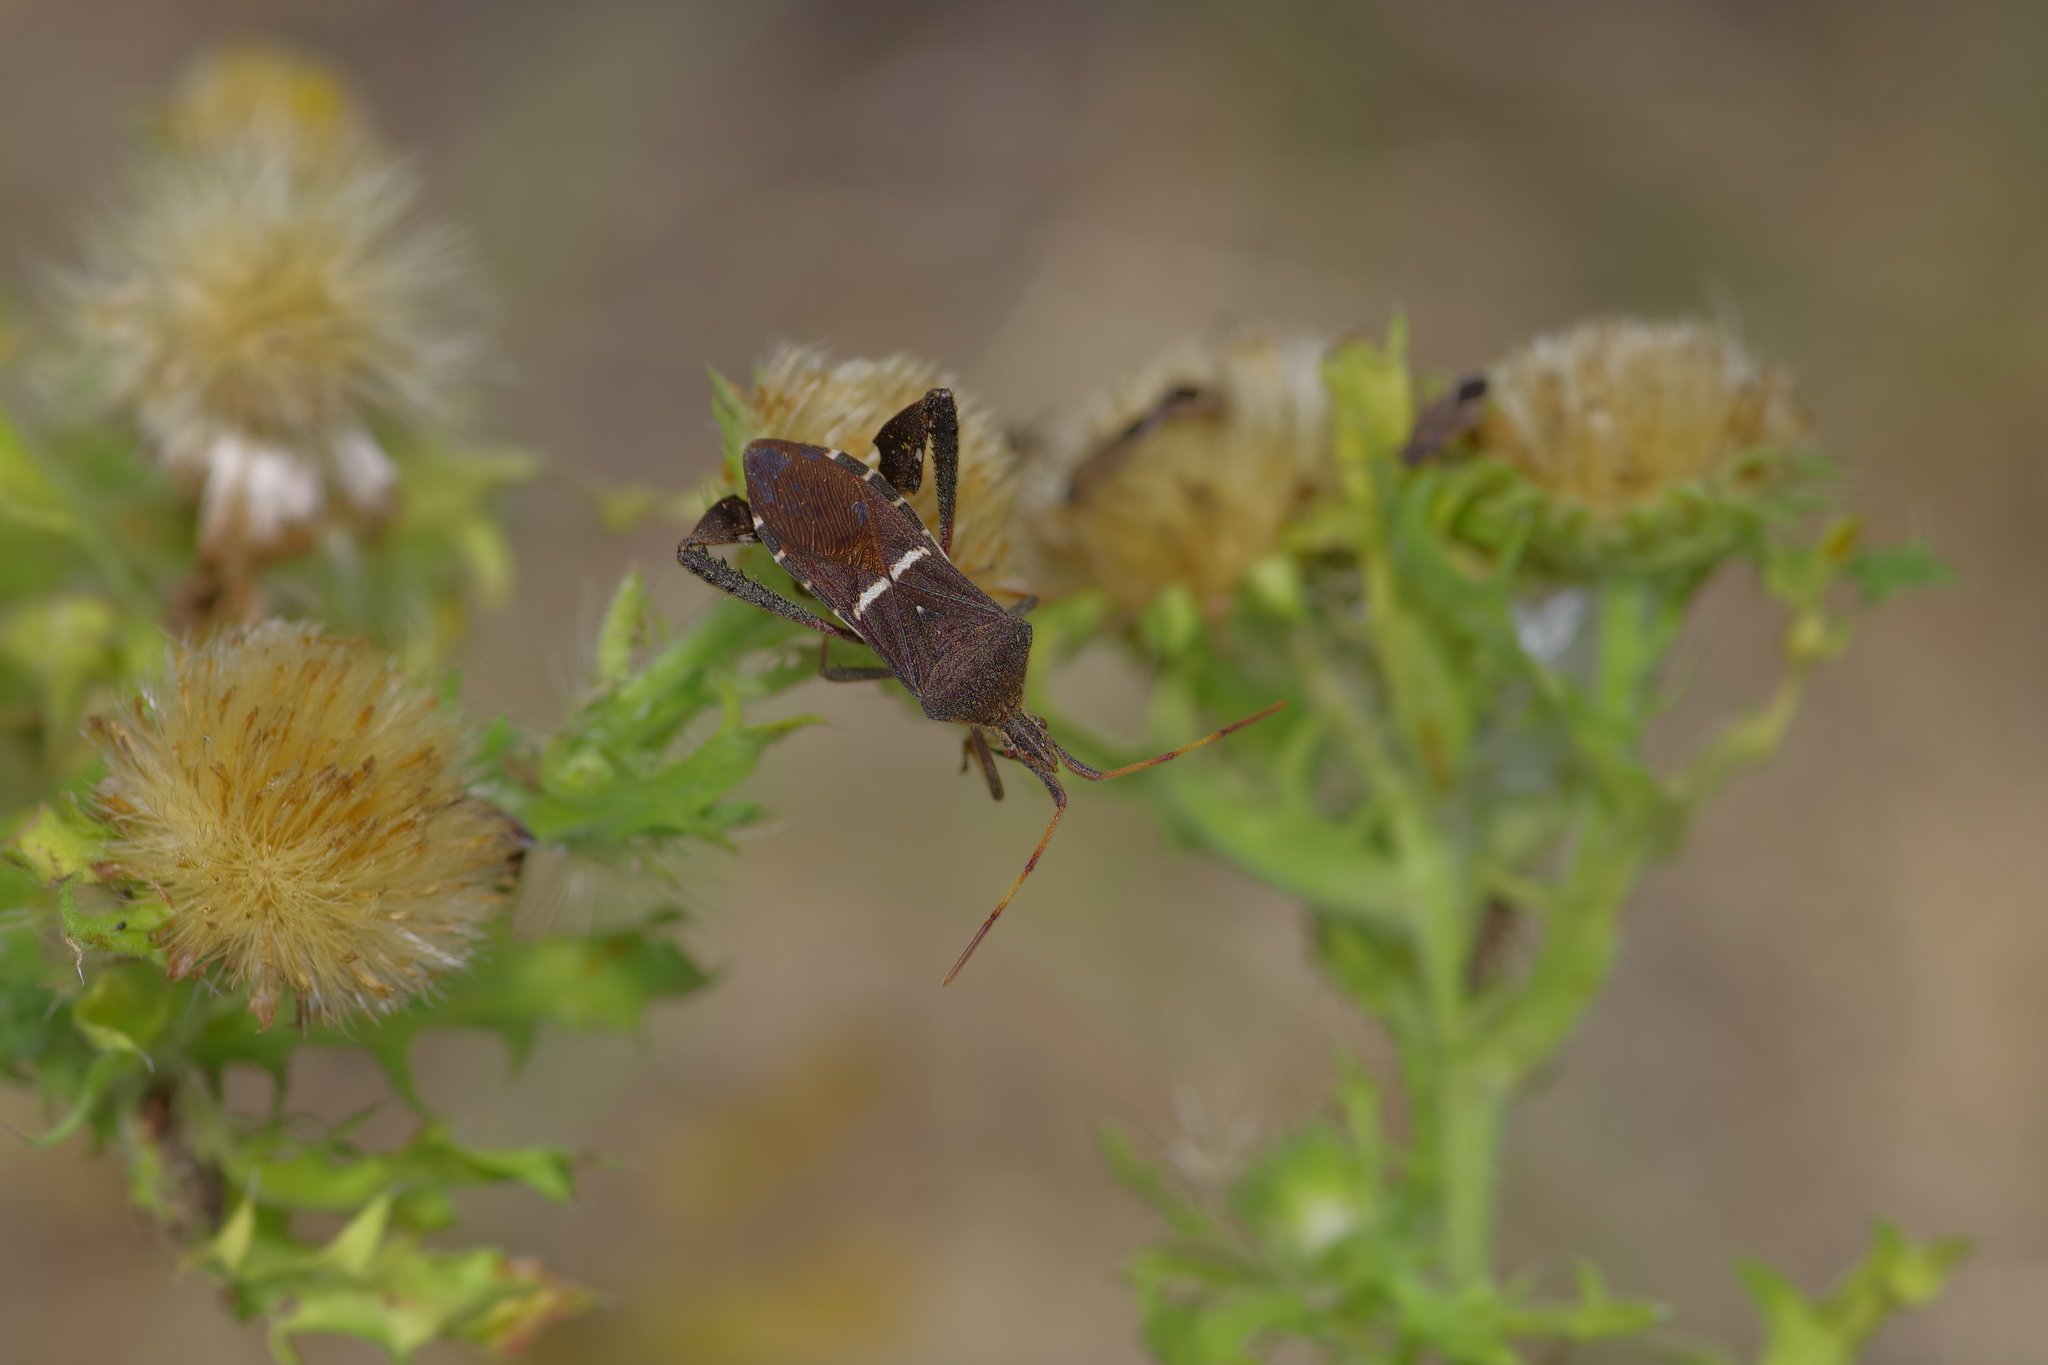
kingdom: Animalia
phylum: Arthropoda
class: Insecta
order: Hemiptera
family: Coreidae
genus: Leptoglossus
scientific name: Leptoglossus phyllopus
